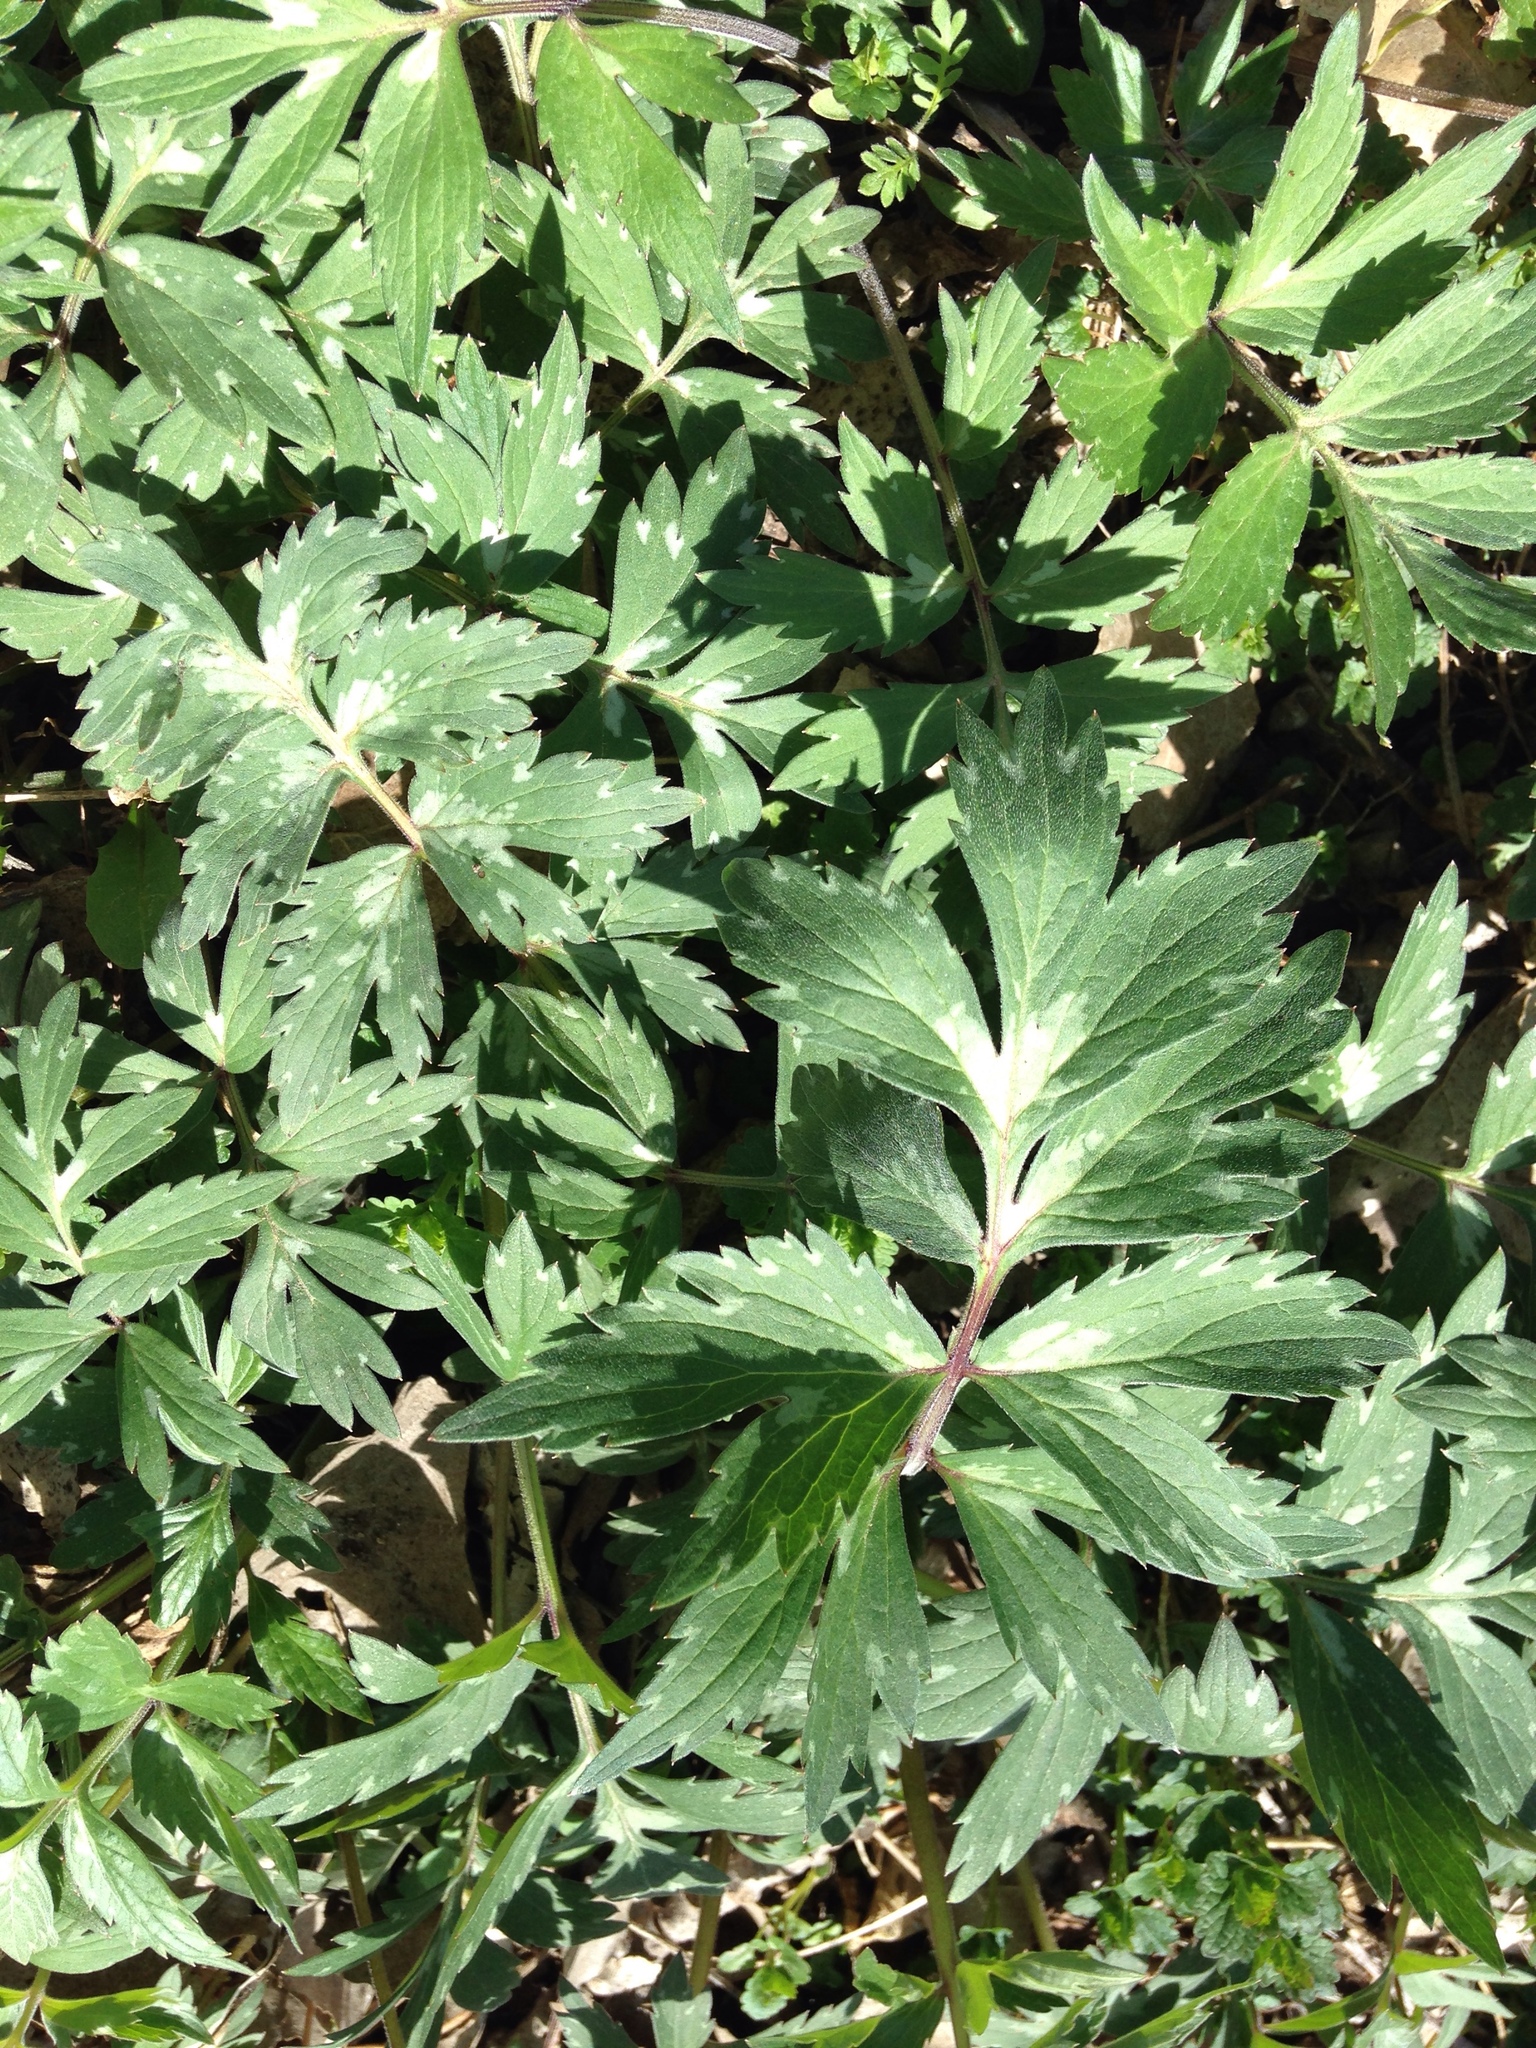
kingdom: Plantae
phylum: Tracheophyta
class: Magnoliopsida
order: Boraginales
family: Hydrophyllaceae
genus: Hydrophyllum
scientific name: Hydrophyllum virginianum
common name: Virginia waterleaf
